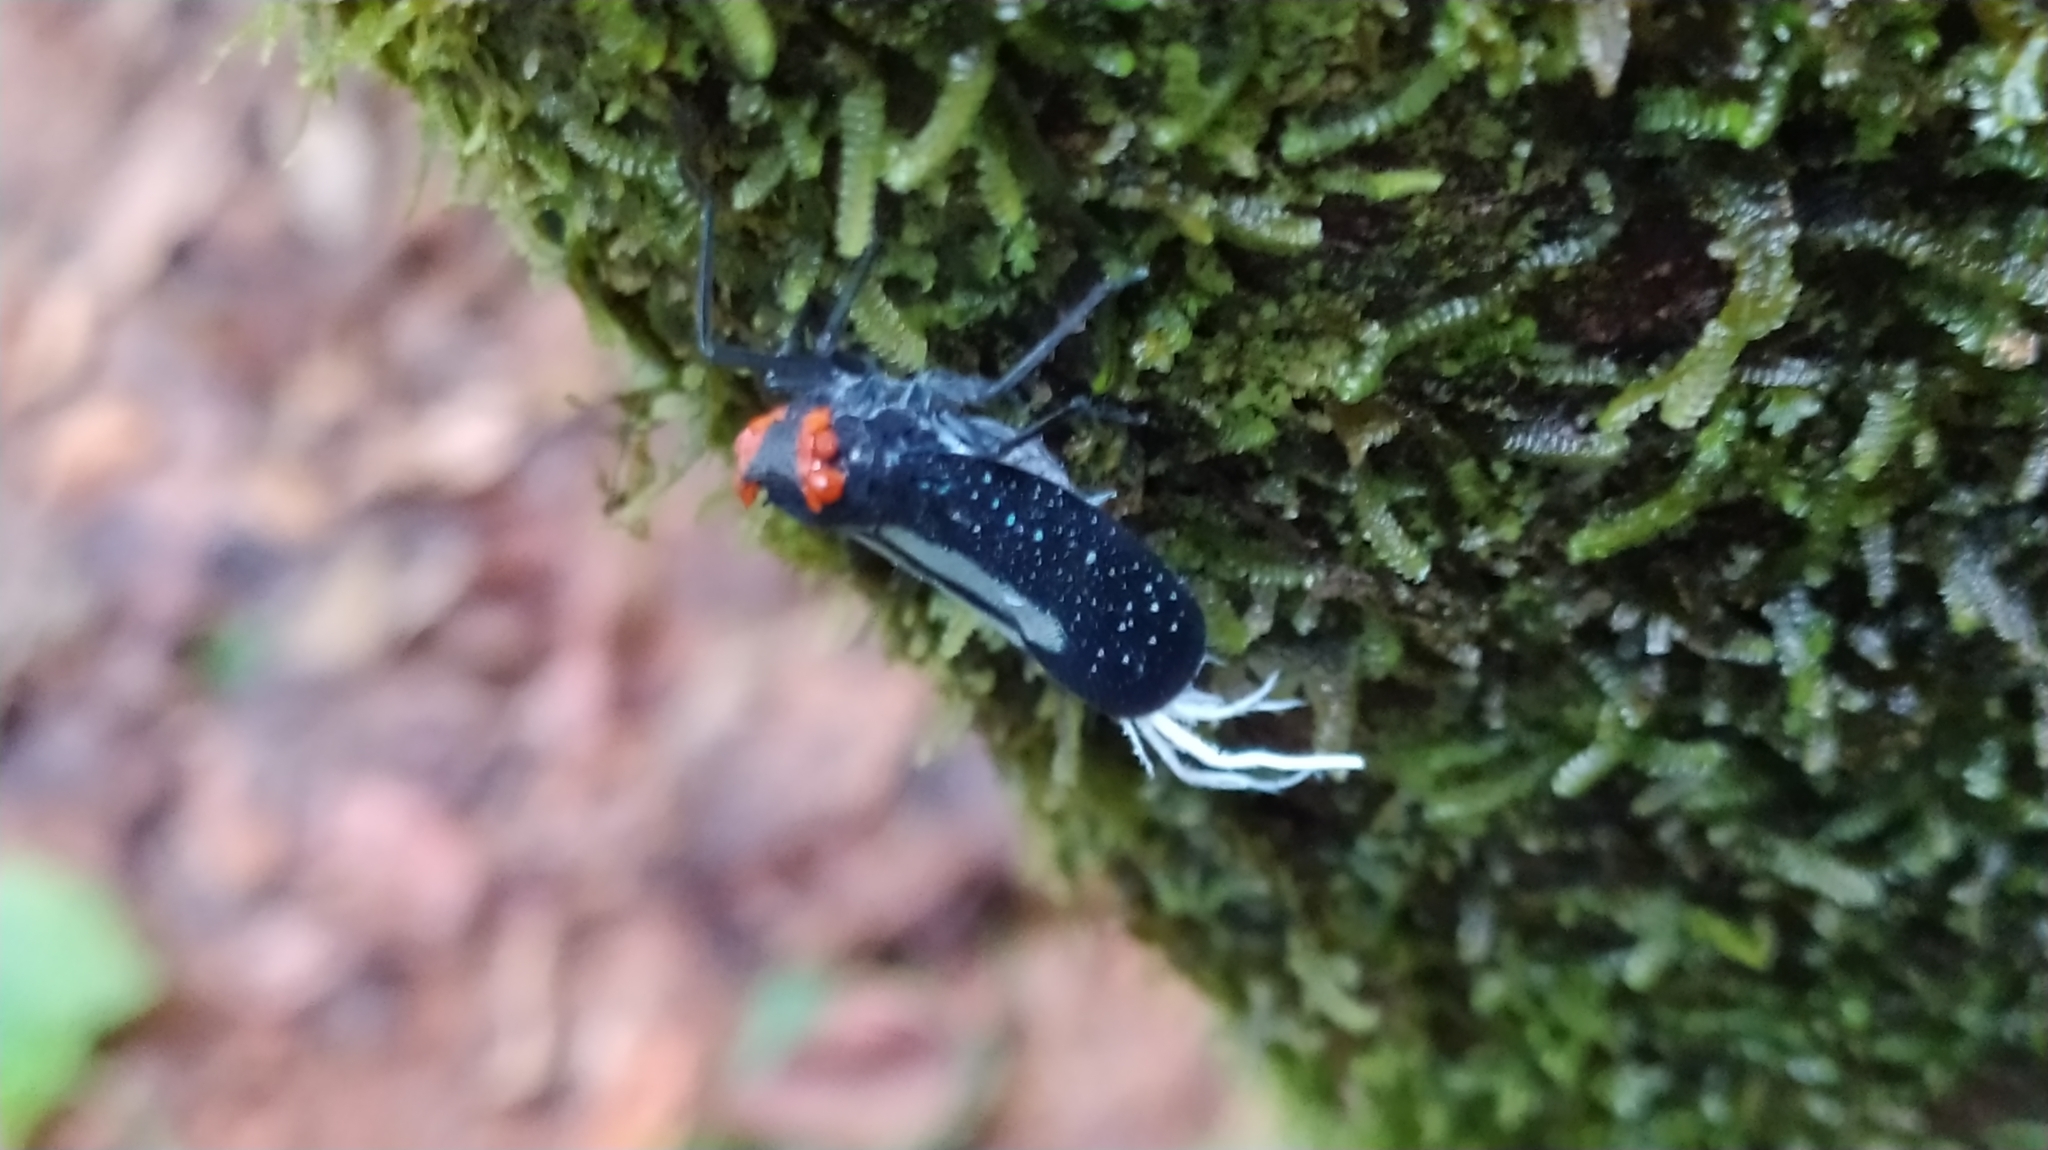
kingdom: Animalia
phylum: Arthropoda
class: Insecta
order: Hemiptera
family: Fulgoridae
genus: Lystra
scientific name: Lystra lanata
